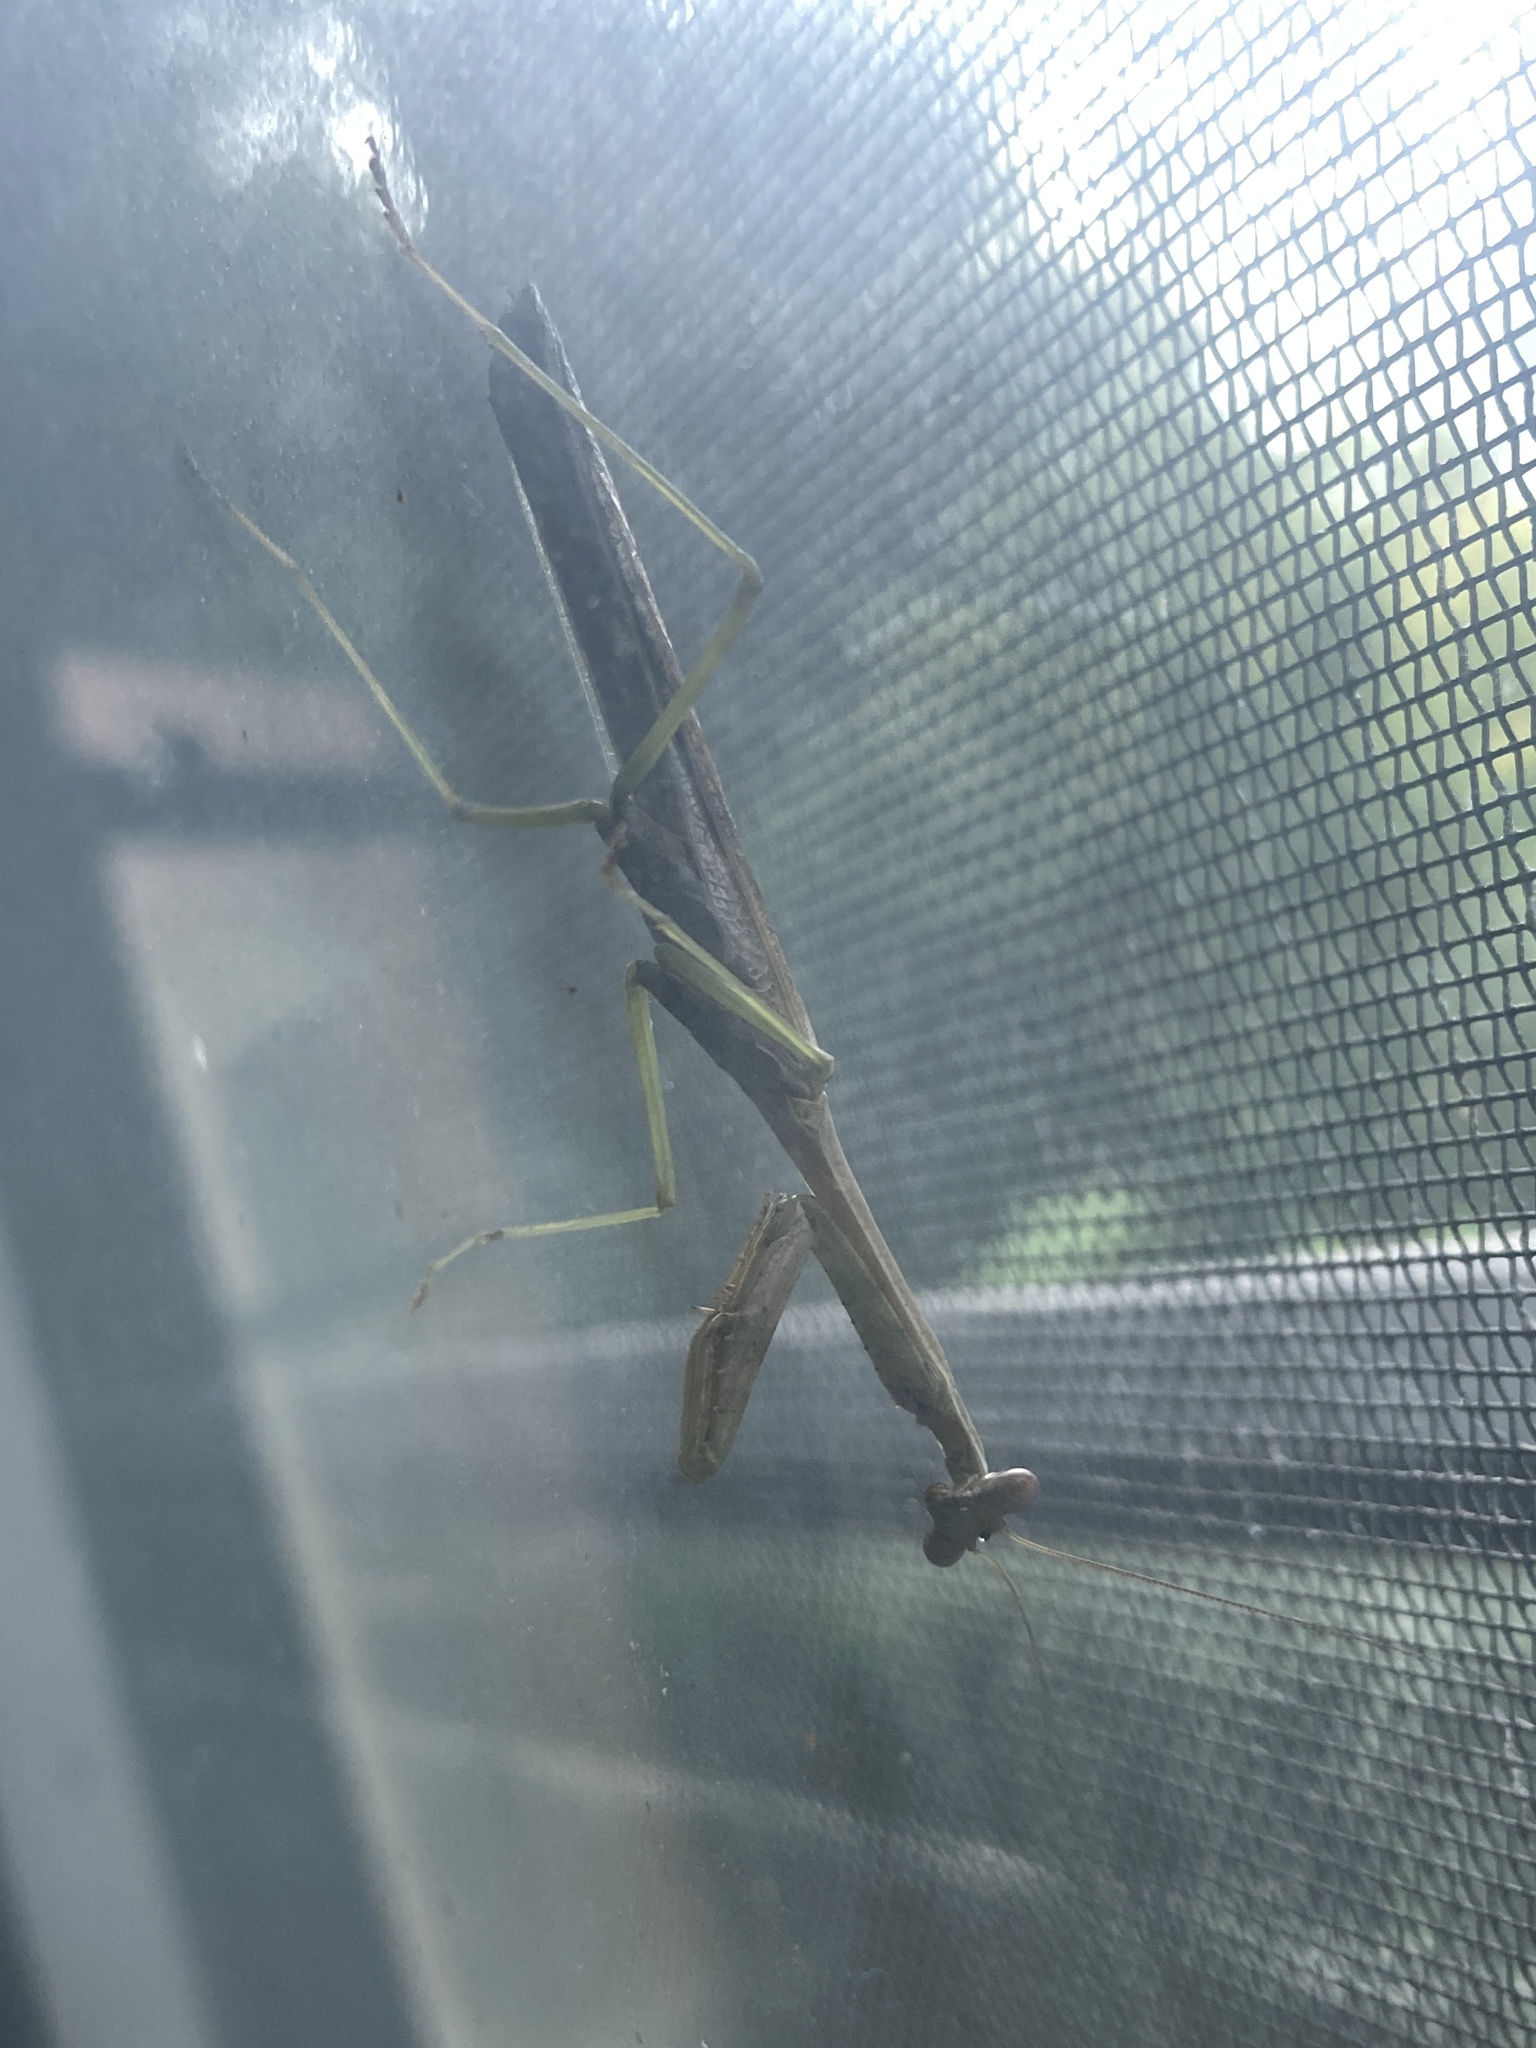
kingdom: Animalia
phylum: Arthropoda
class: Insecta
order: Mantodea
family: Mantidae
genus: Stagmomantis
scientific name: Stagmomantis carolina
